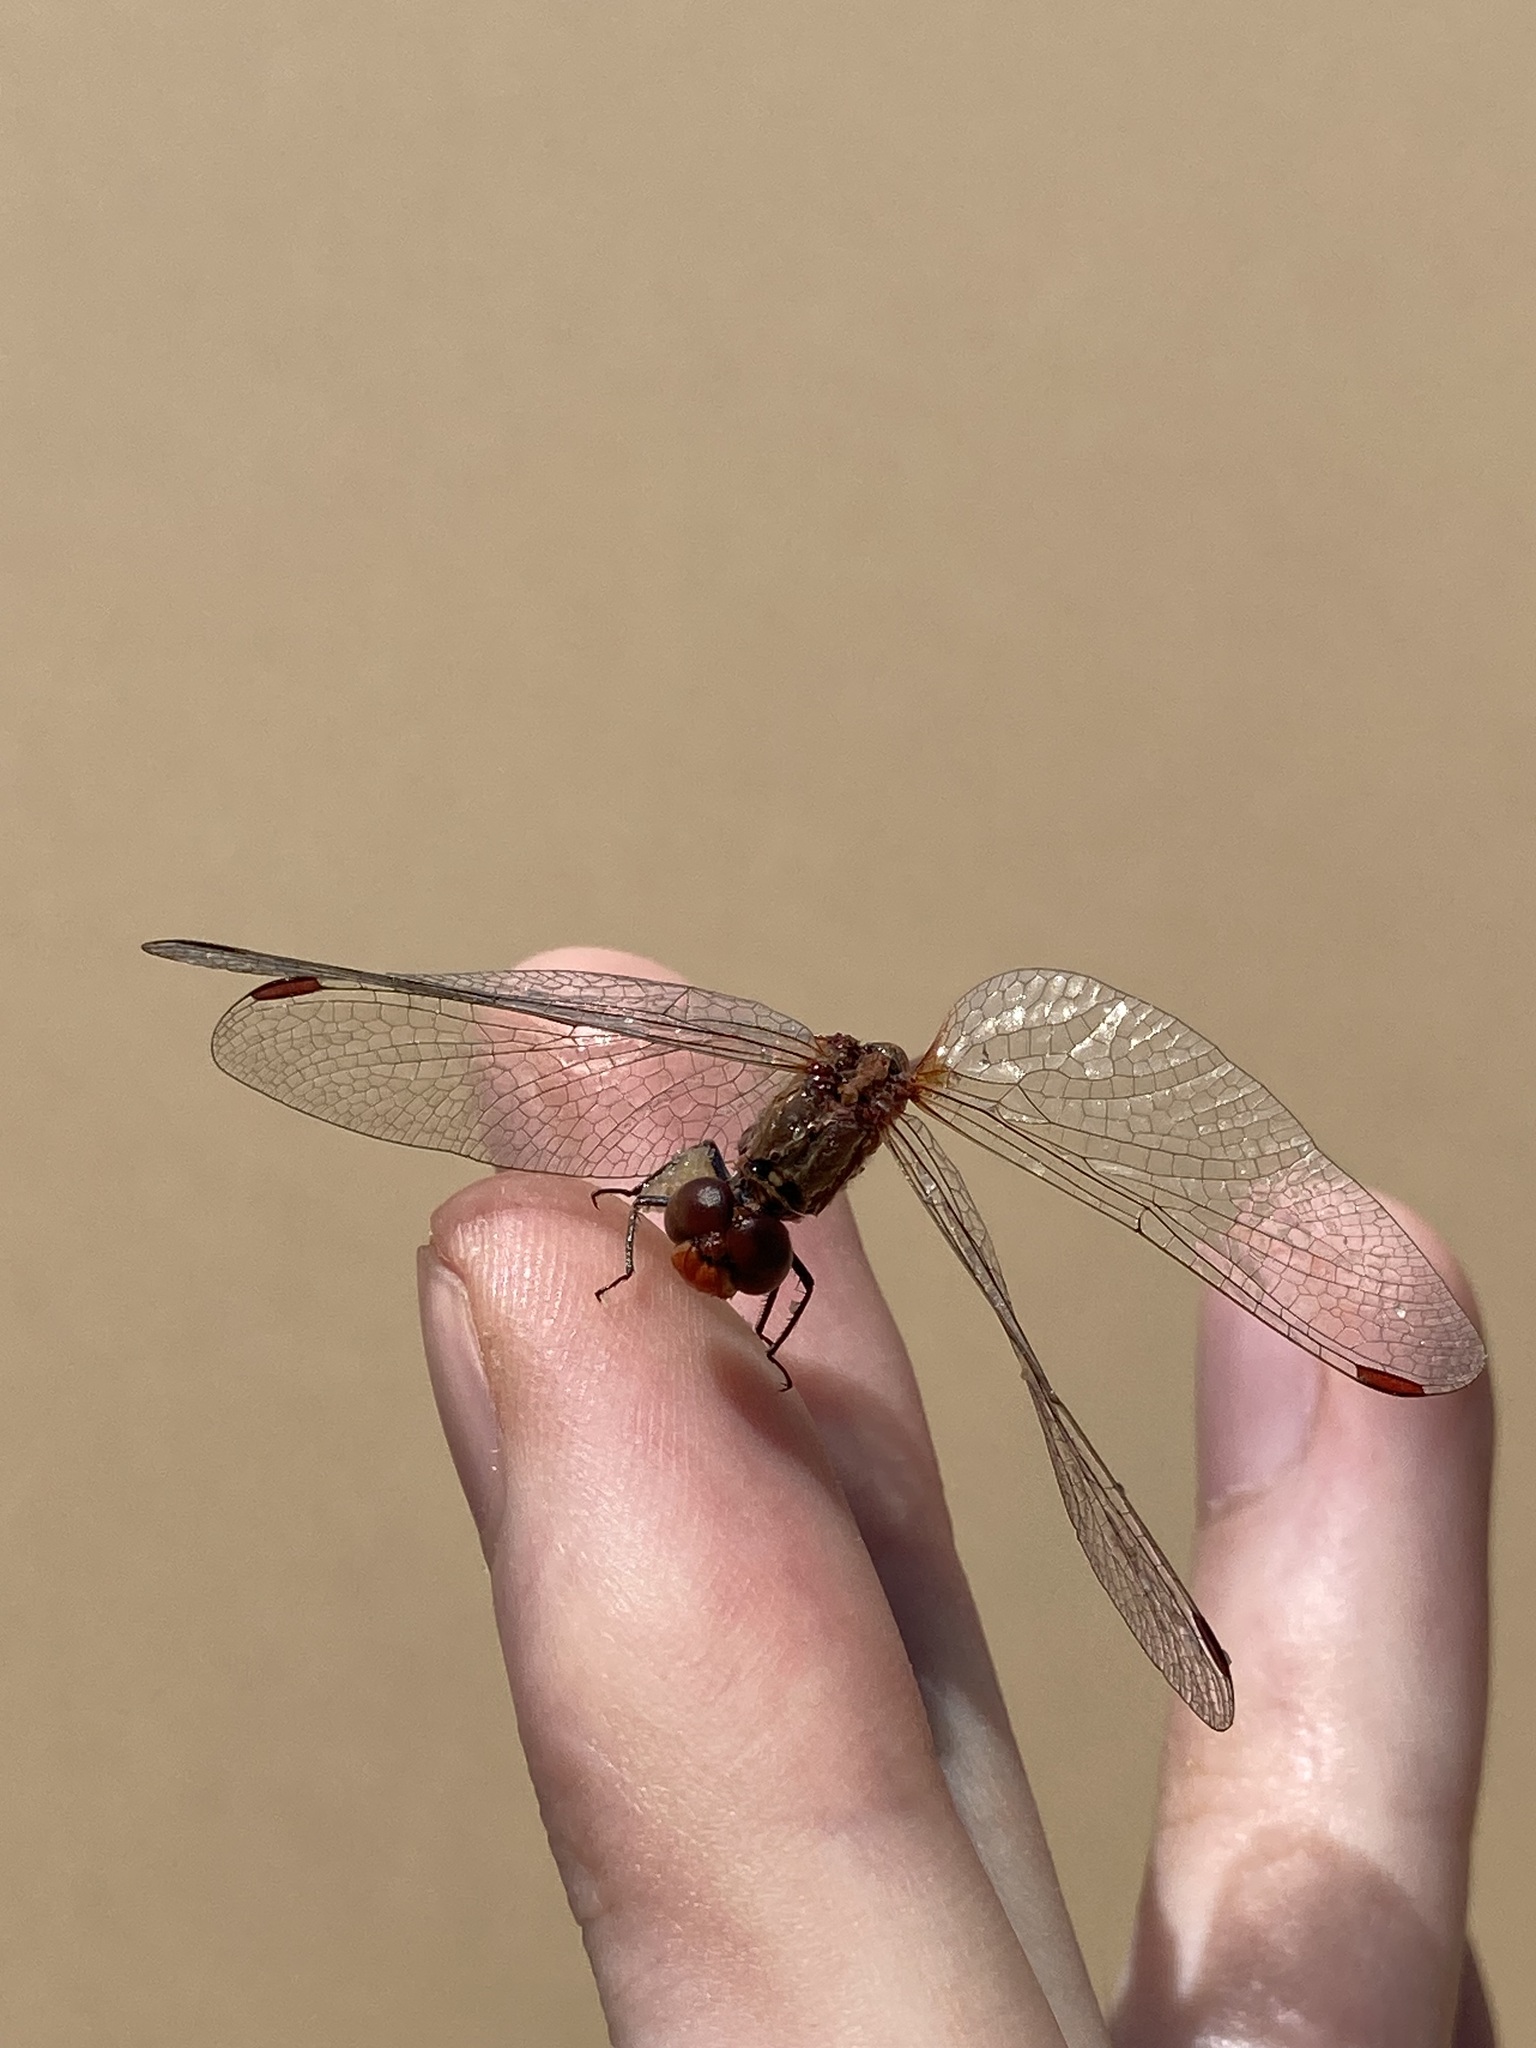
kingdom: Animalia
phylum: Arthropoda
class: Insecta
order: Odonata
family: Libellulidae
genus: Diplacodes
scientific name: Diplacodes bipunctata
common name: Red percher dragonfly
